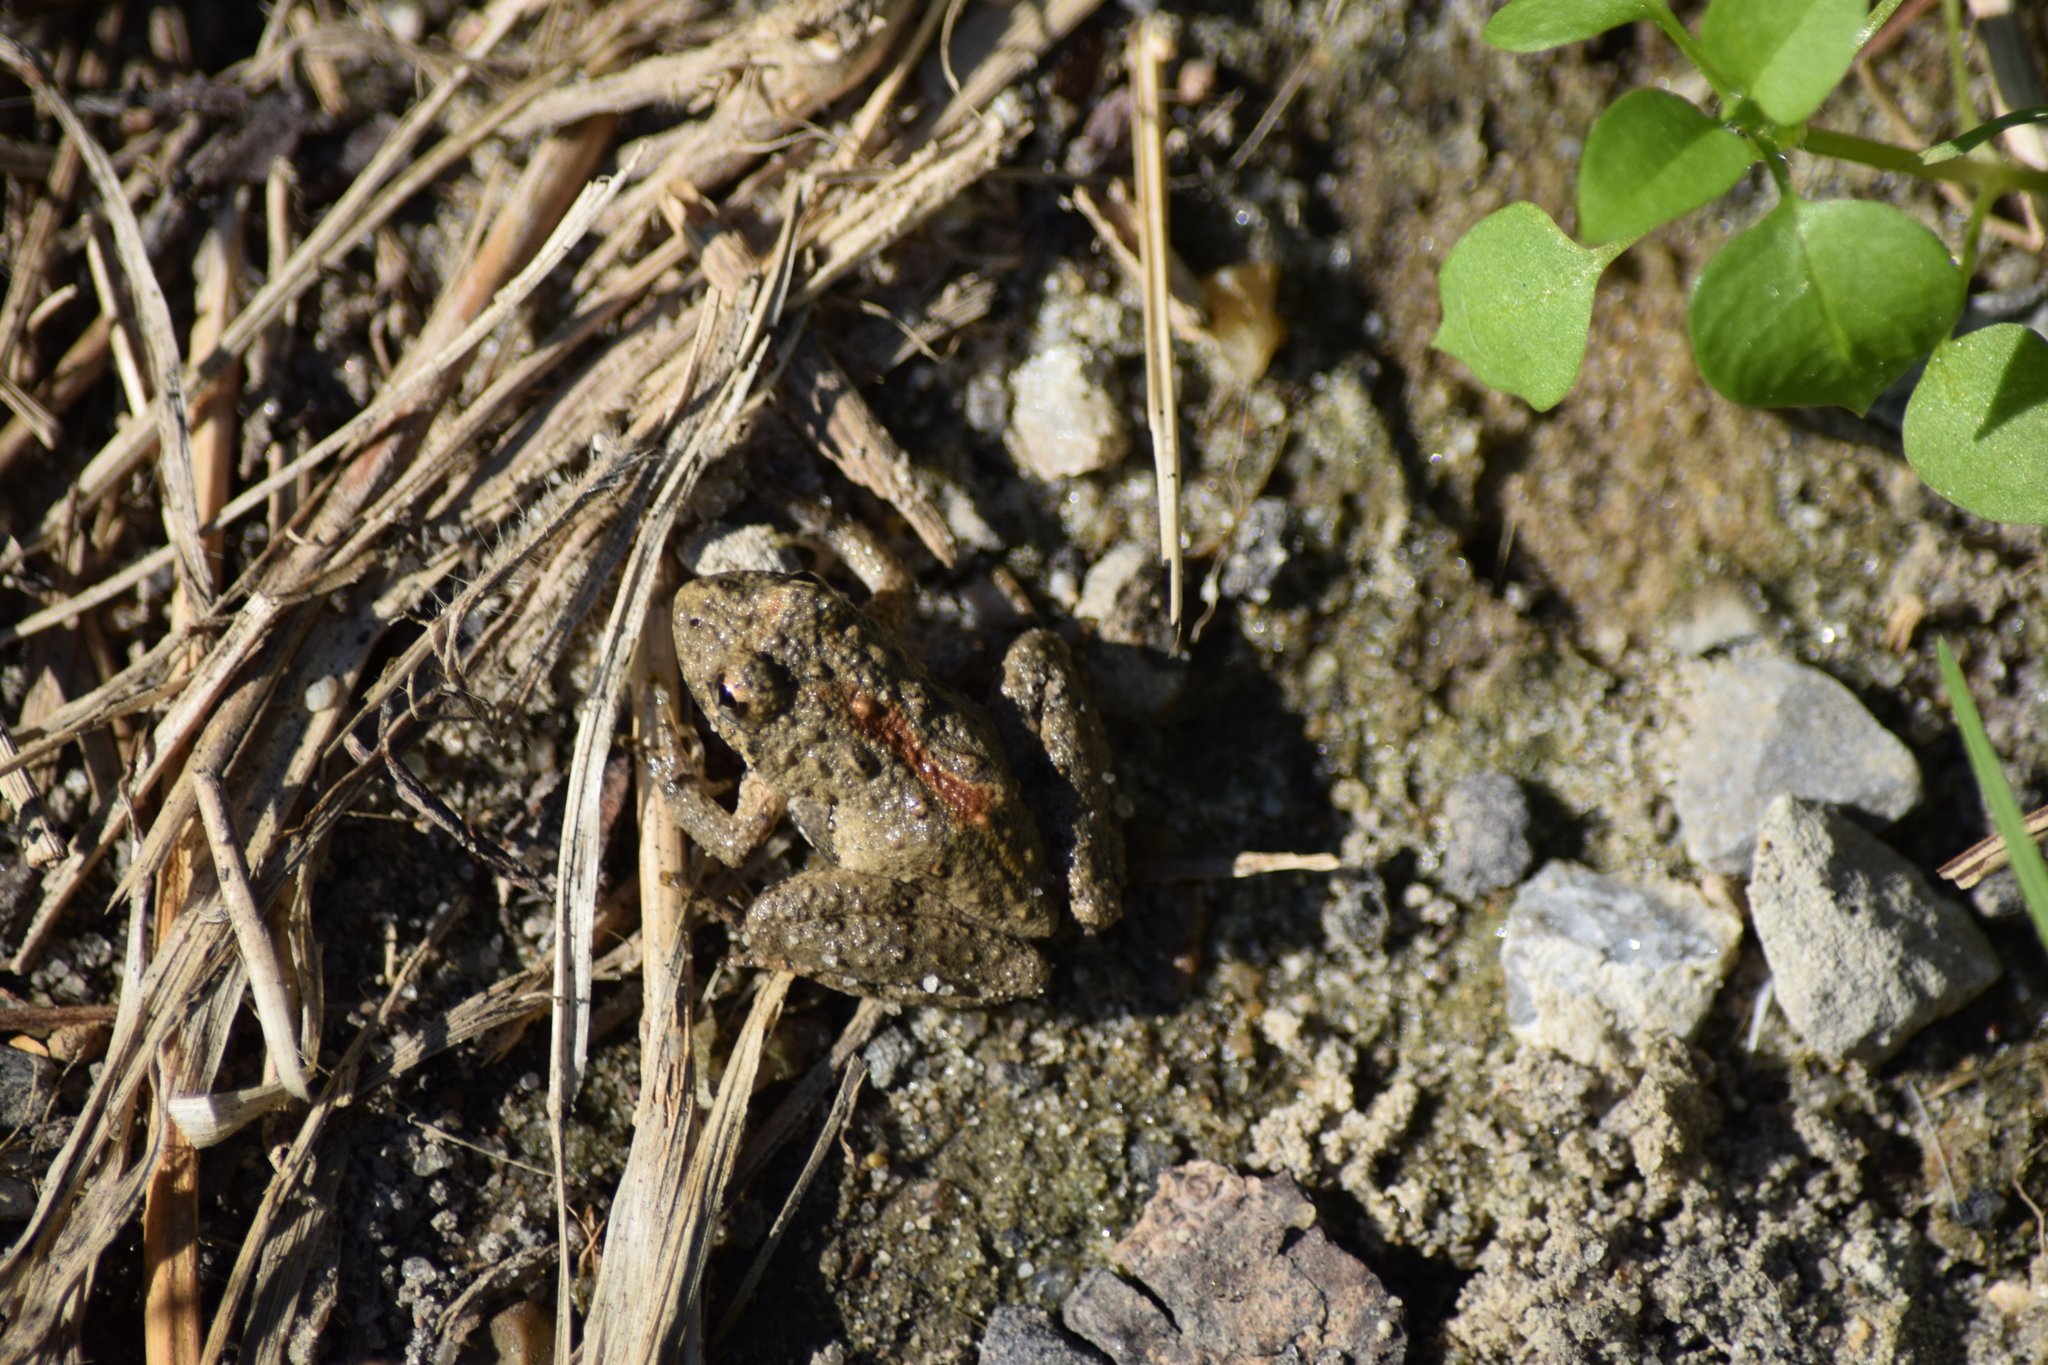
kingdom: Animalia
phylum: Chordata
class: Amphibia
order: Anura
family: Hylidae
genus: Acris
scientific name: Acris crepitans
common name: Northern cricket frog
